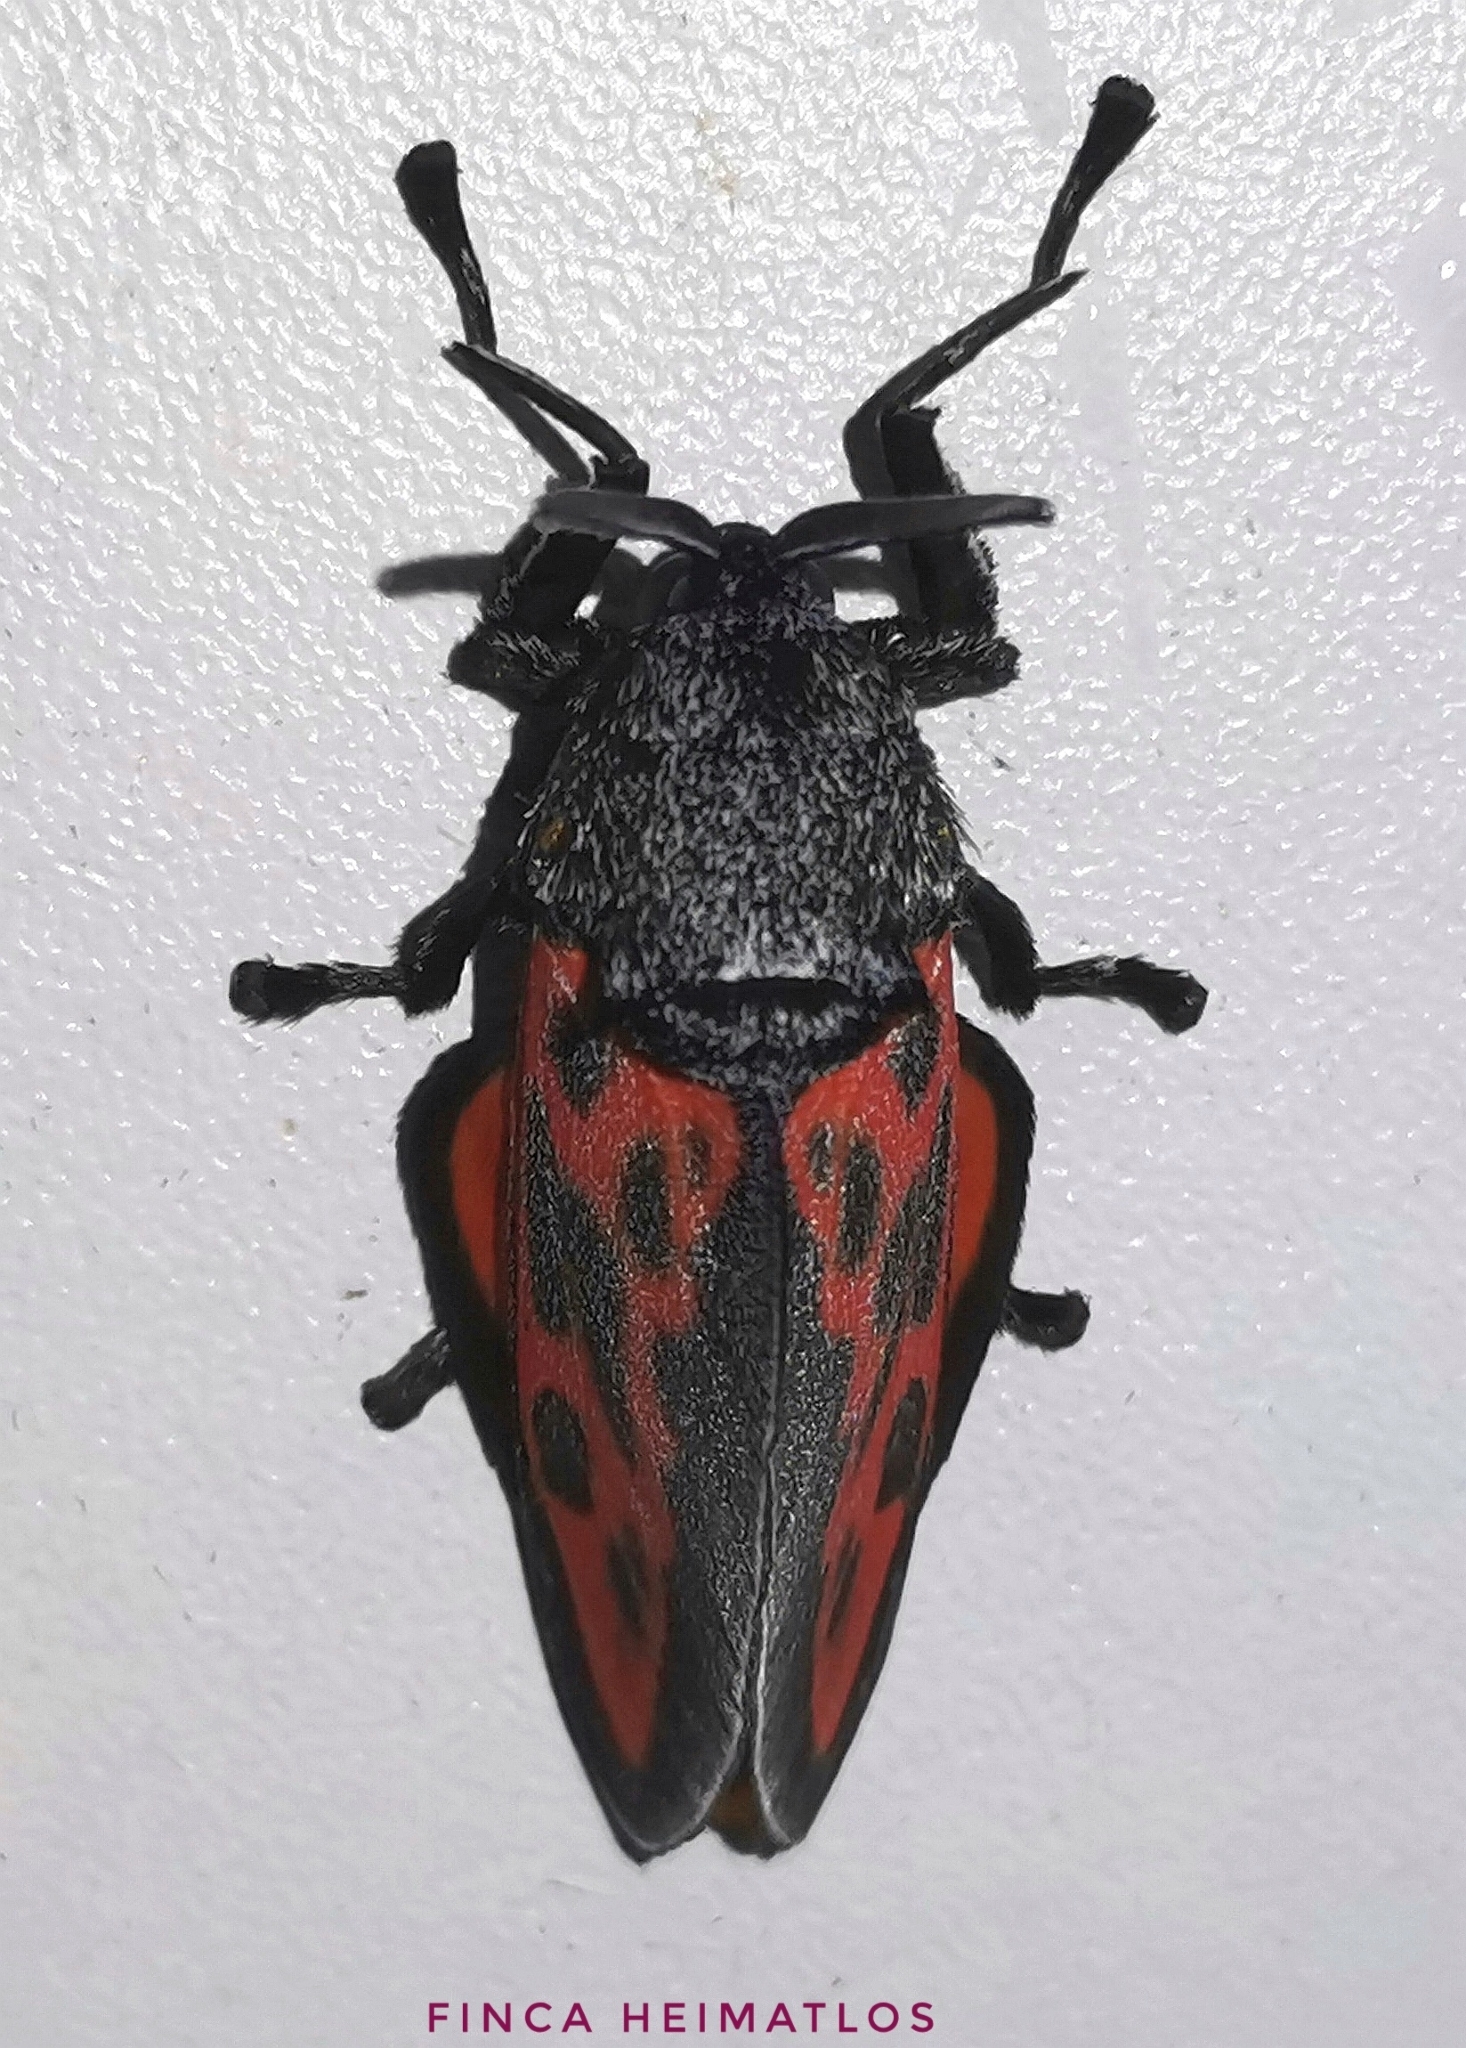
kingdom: Animalia
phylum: Arthropoda
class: Insecta
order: Lepidoptera
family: Megalopygidae
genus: Langucys
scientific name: Langucys nigrorufus
